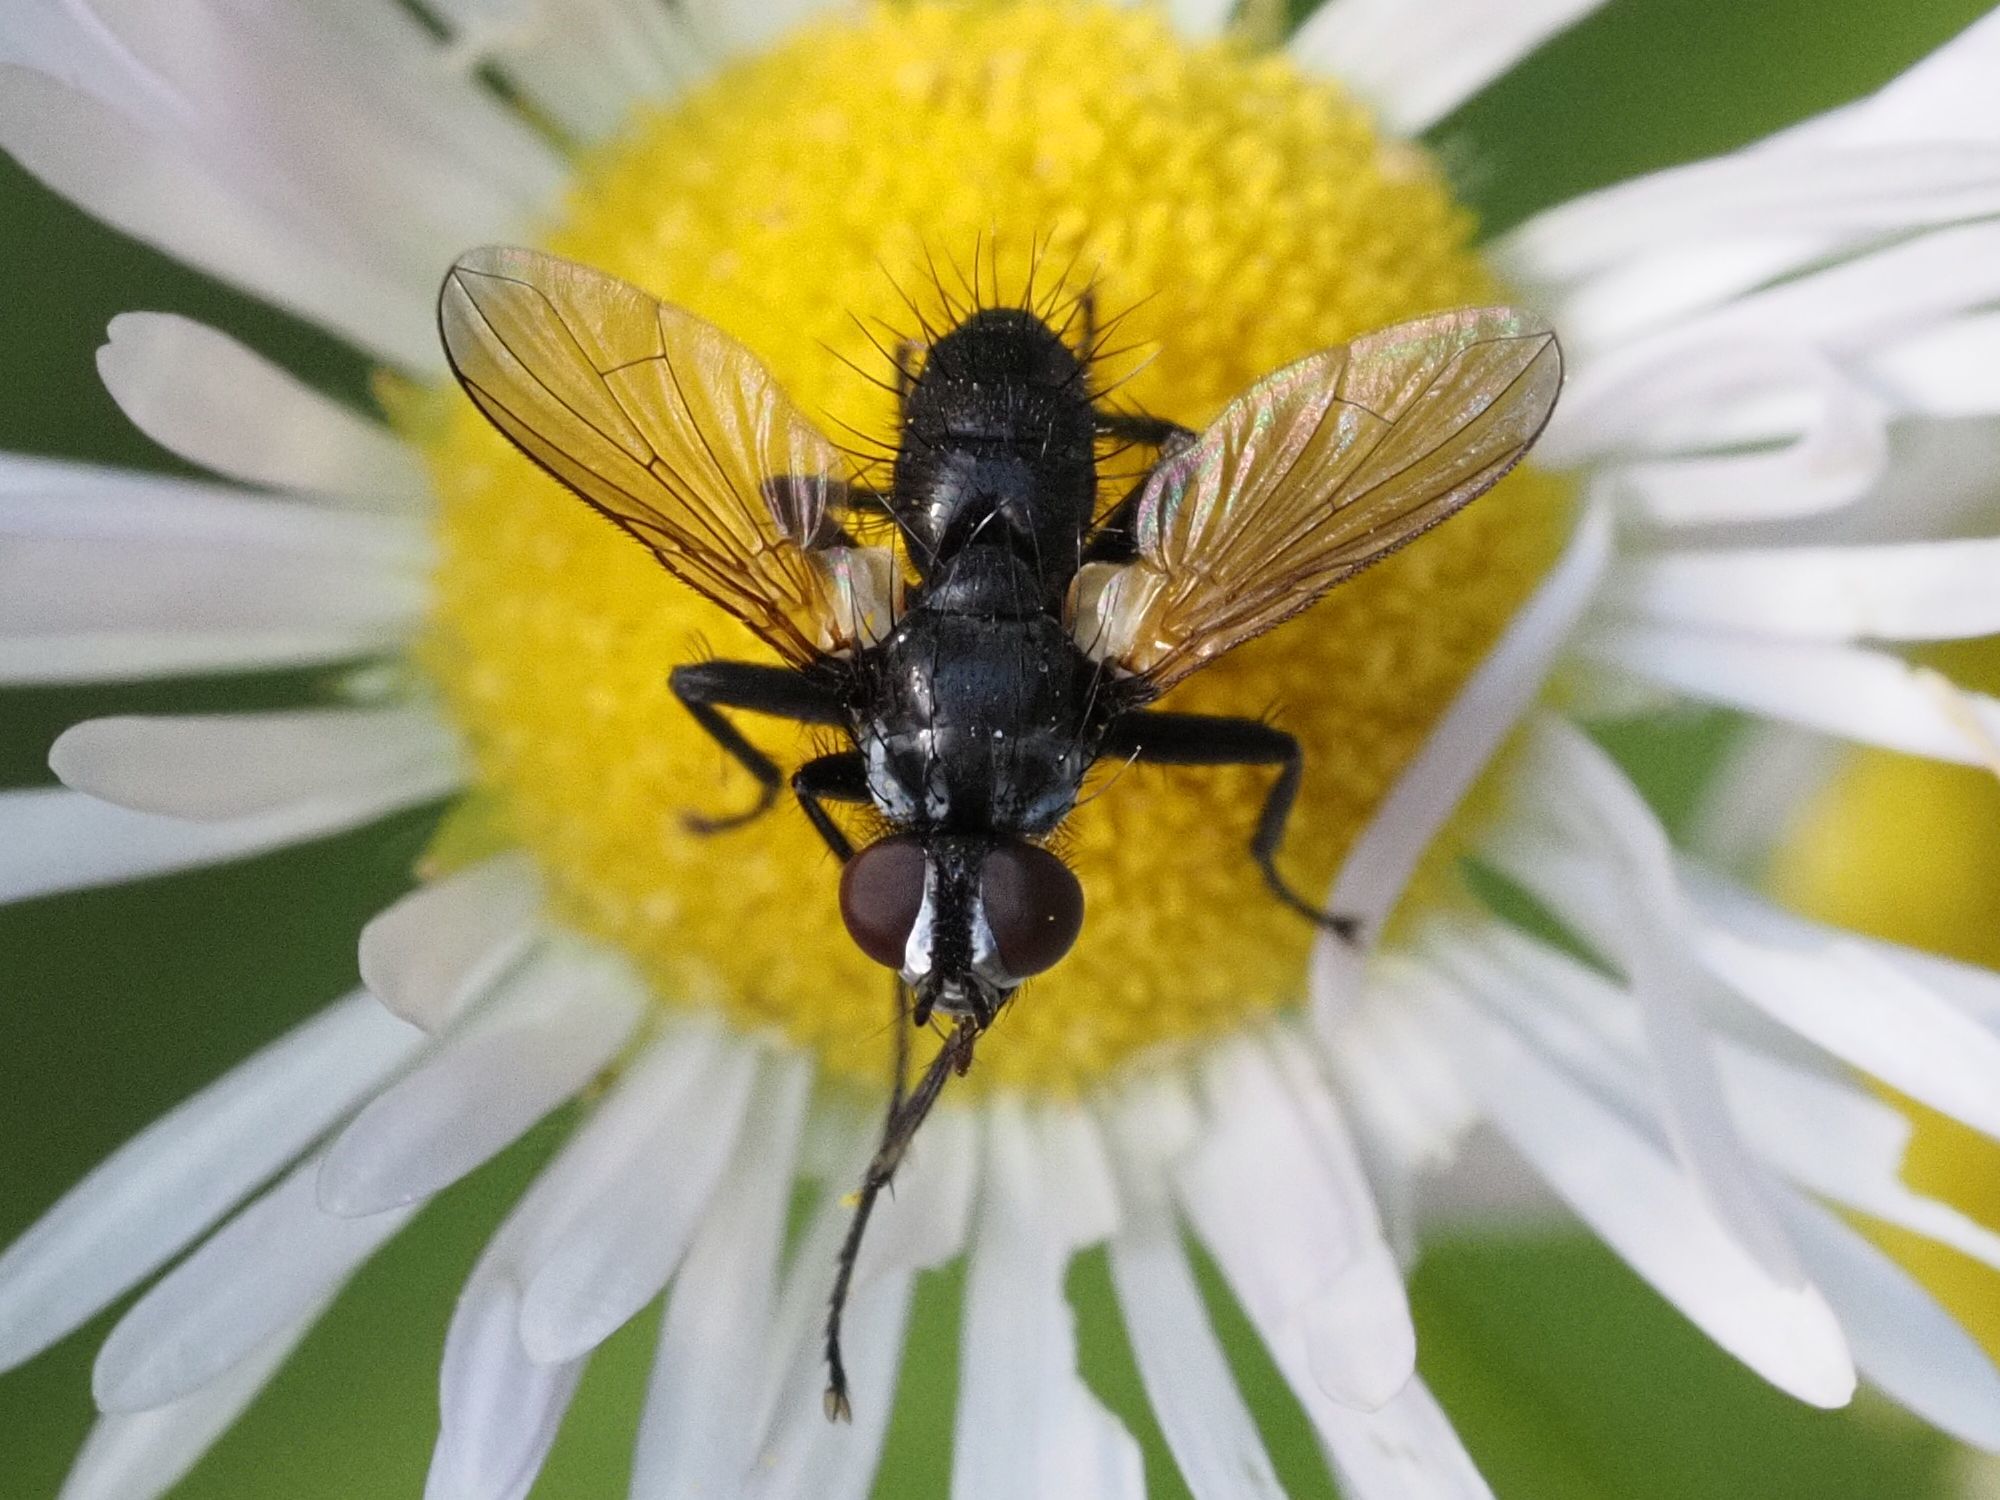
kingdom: Animalia
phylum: Arthropoda
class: Insecta
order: Diptera
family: Tachinidae
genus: Phania
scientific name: Phania funesta
